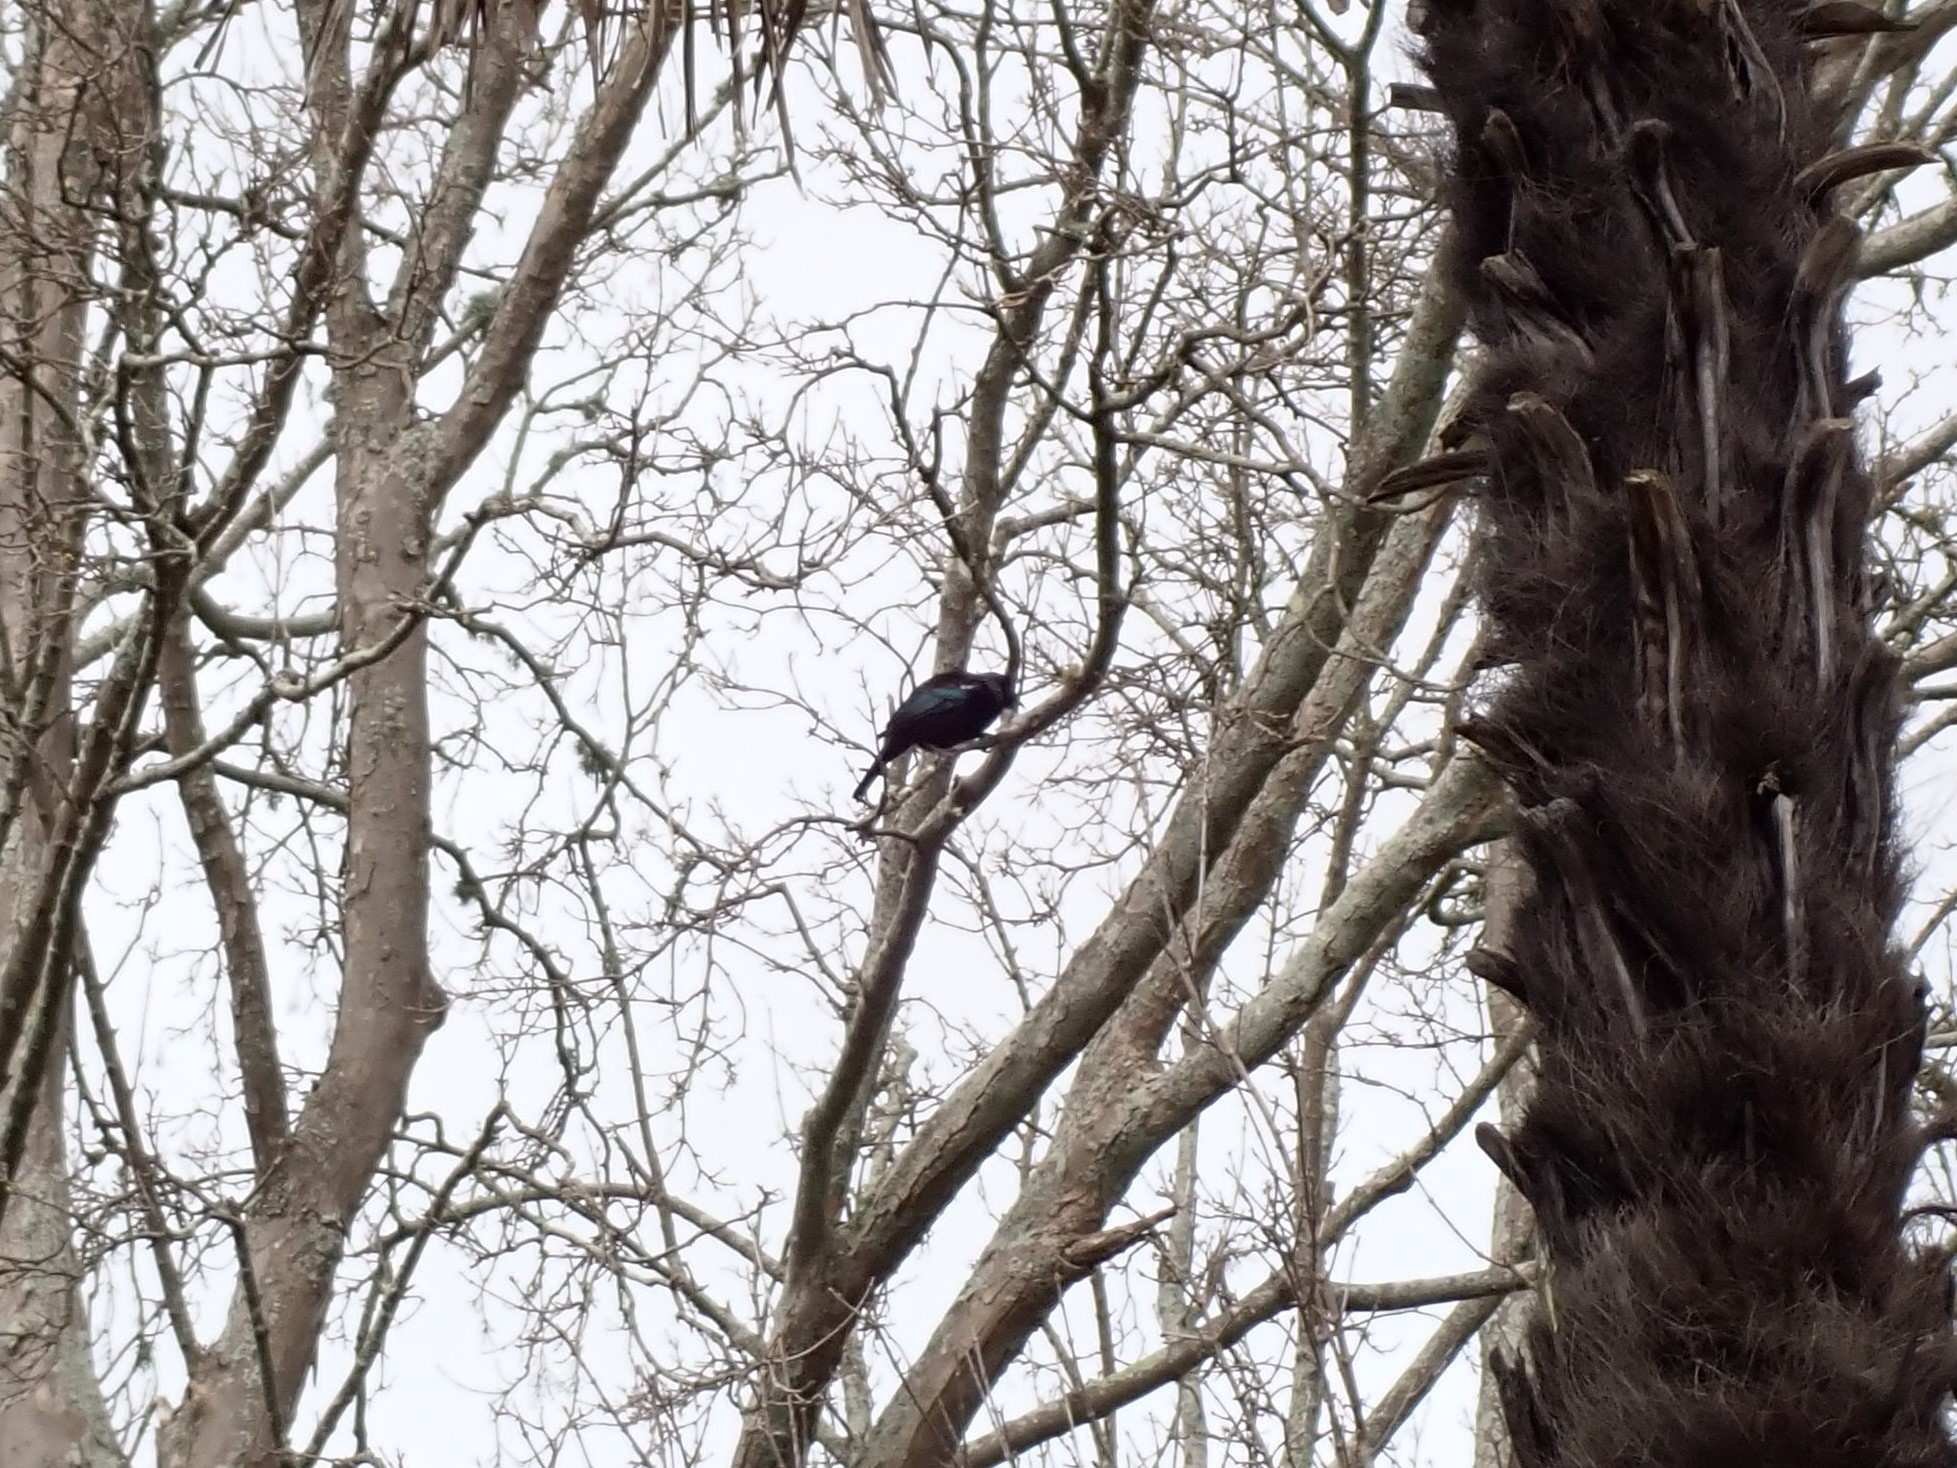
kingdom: Animalia
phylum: Chordata
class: Aves
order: Passeriformes
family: Meliphagidae
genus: Prosthemadera
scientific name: Prosthemadera novaeseelandiae
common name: Tui
